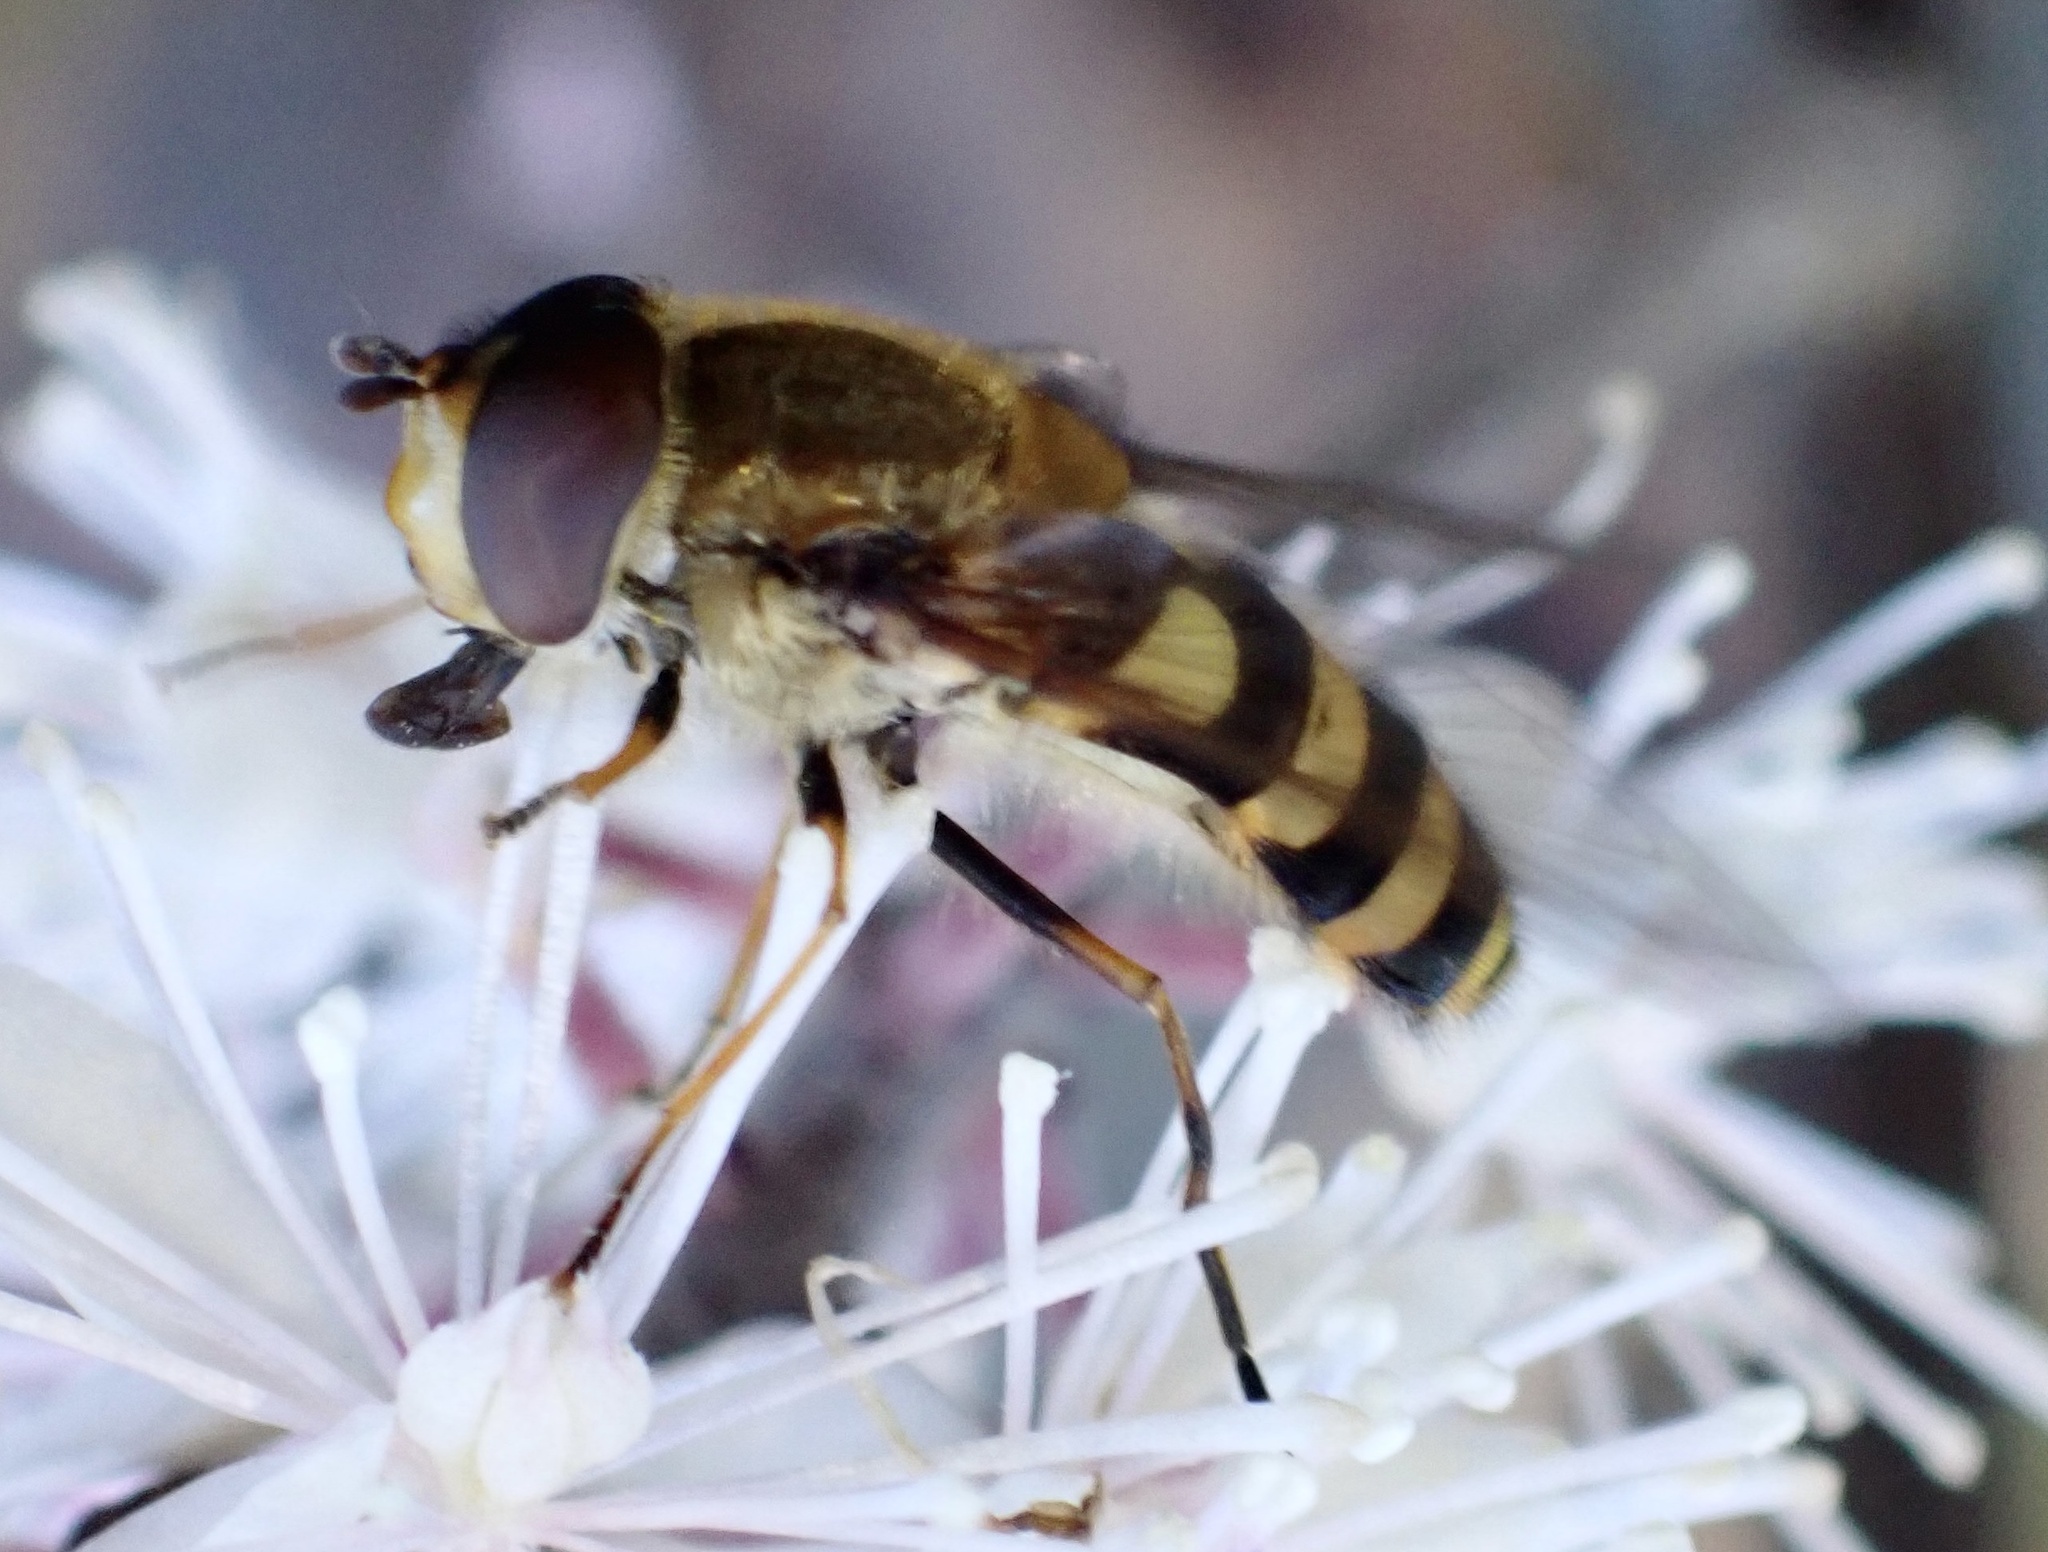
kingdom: Animalia
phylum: Arthropoda
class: Insecta
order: Diptera
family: Syrphidae
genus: Syrphus
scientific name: Syrphus
